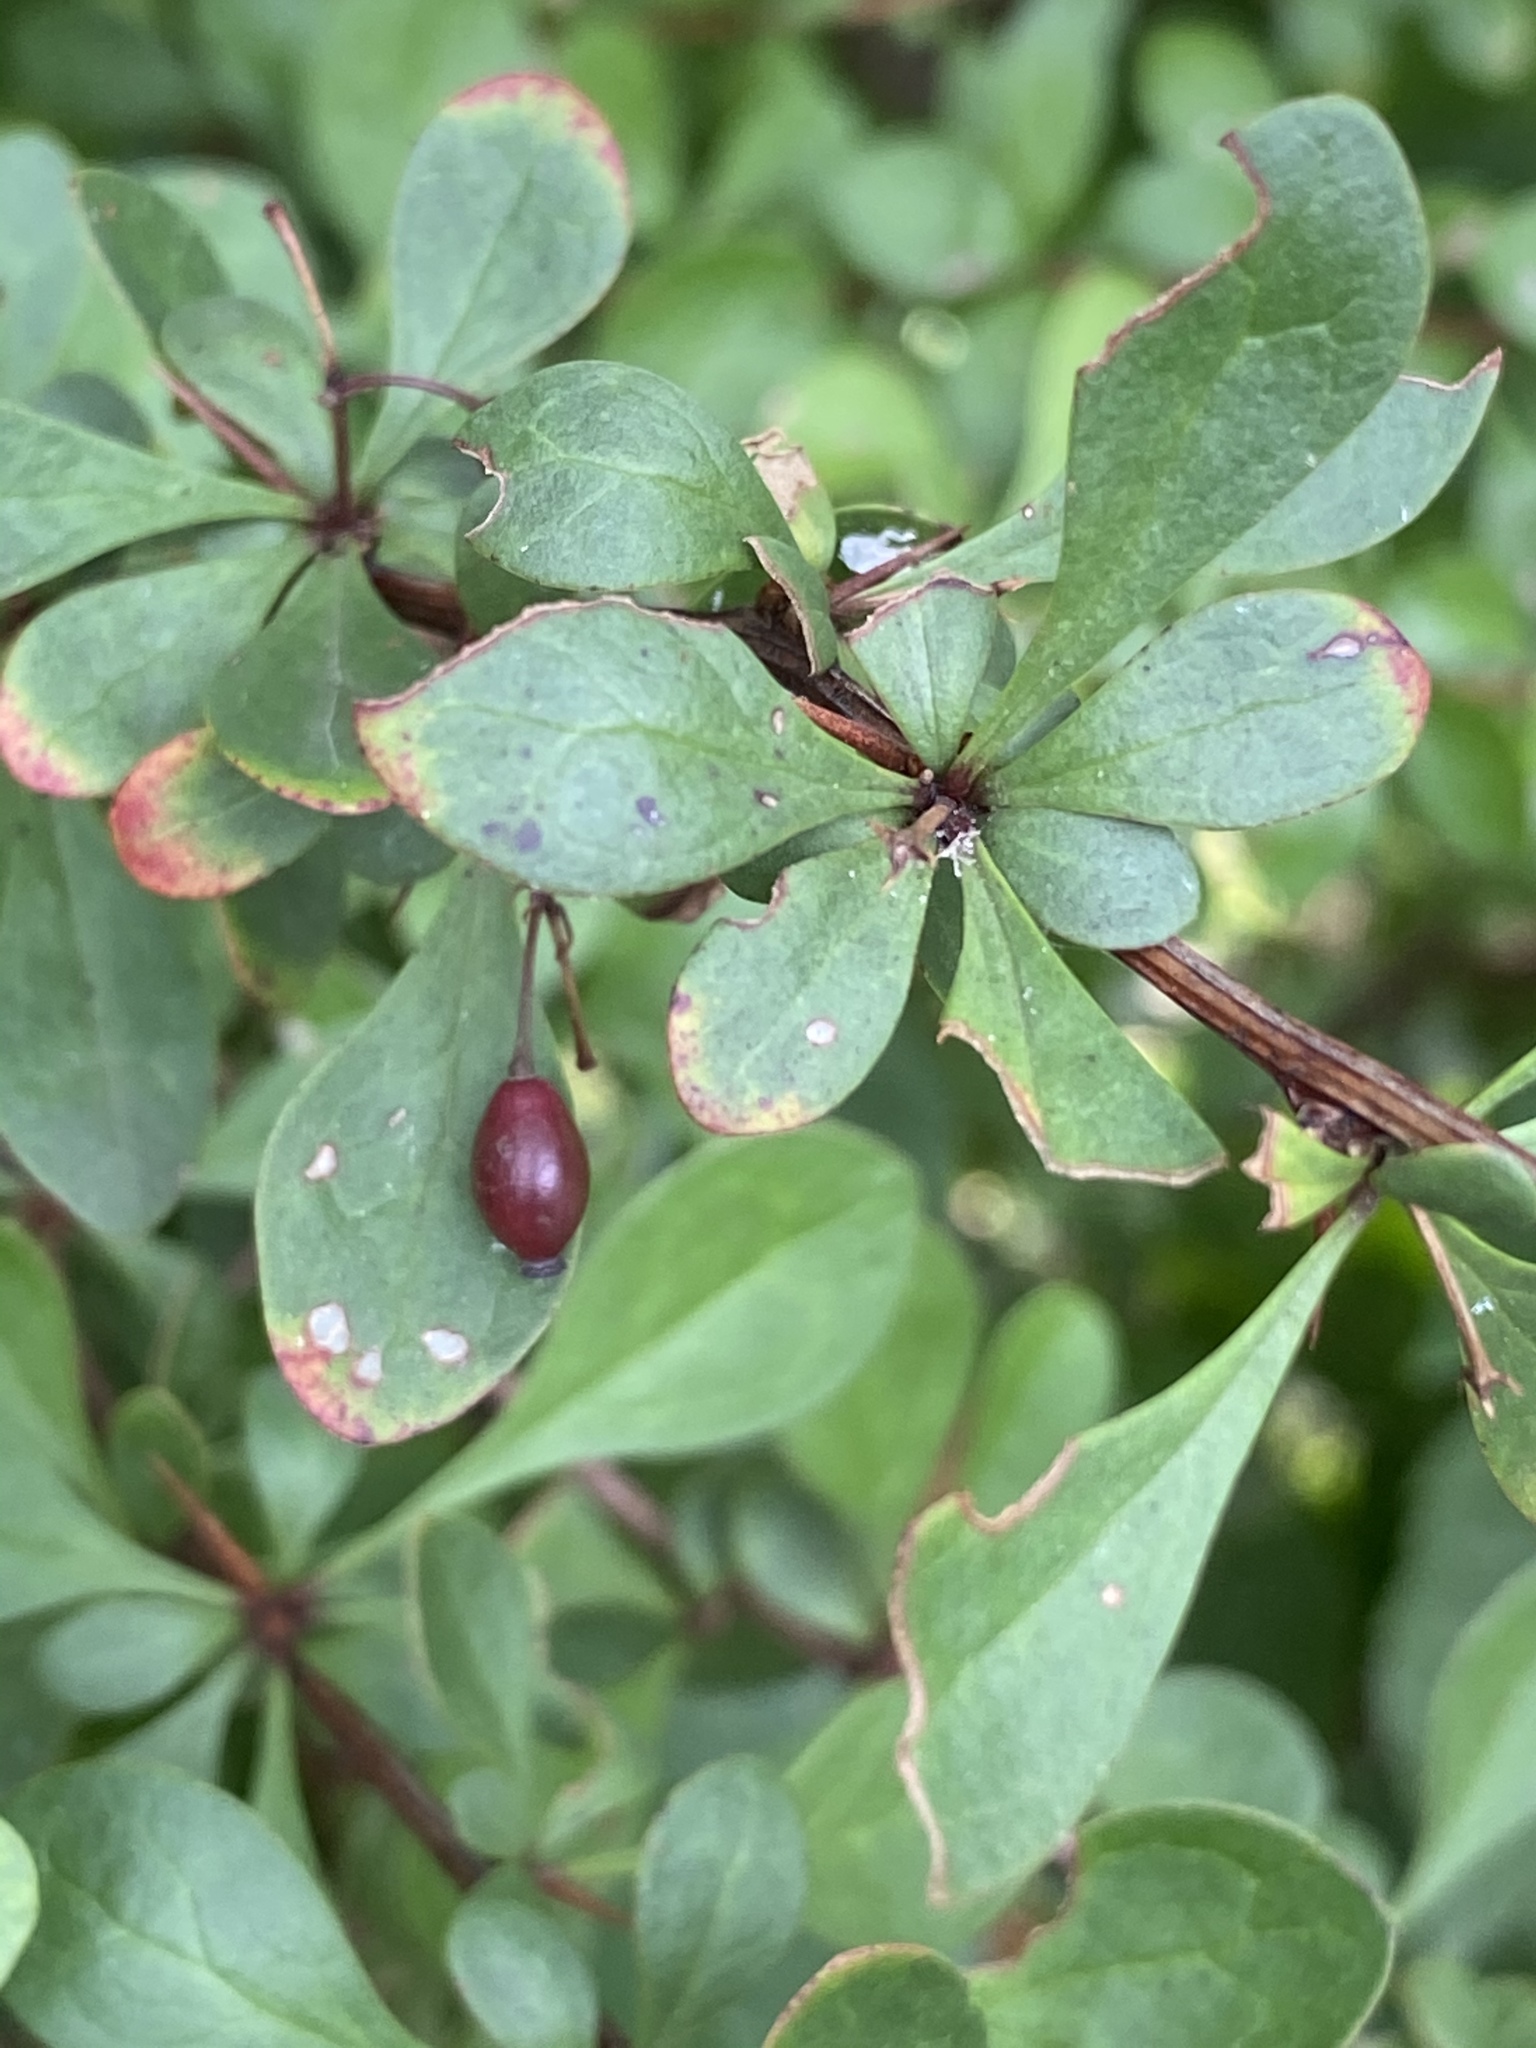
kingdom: Plantae
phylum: Tracheophyta
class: Magnoliopsida
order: Ranunculales
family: Berberidaceae
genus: Berberis
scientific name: Berberis thunbergii
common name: Japanese barberry
